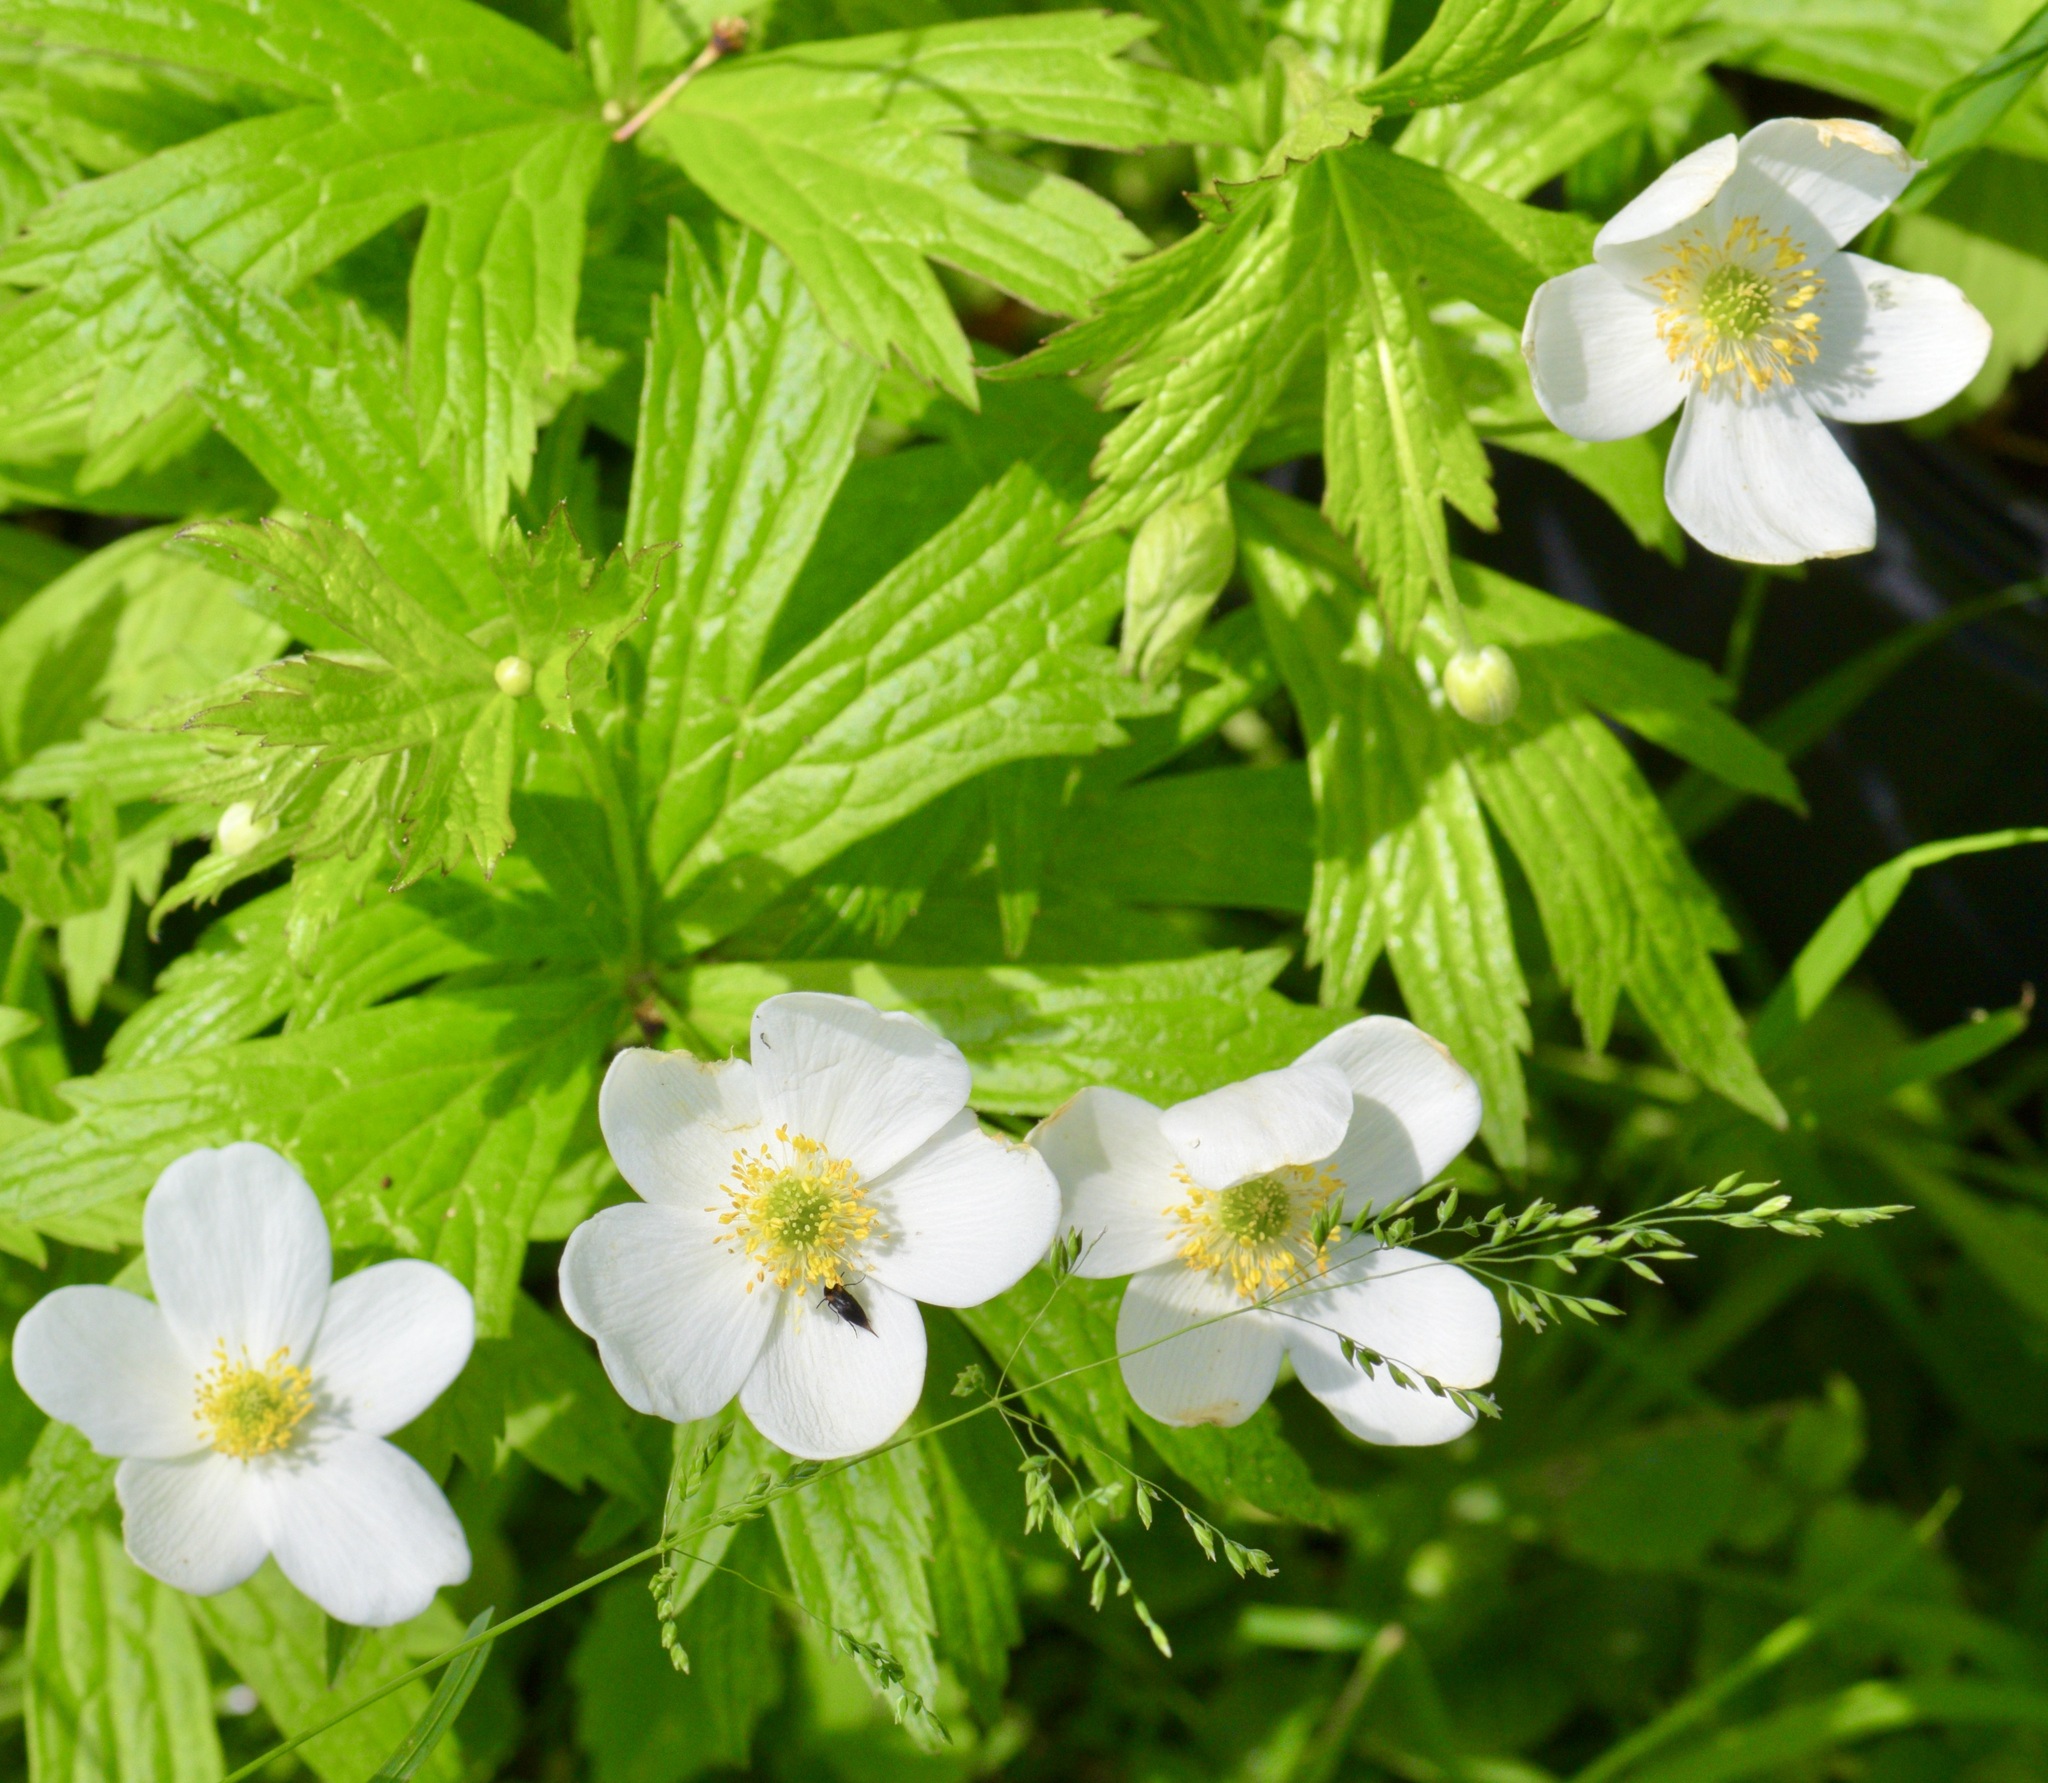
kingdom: Plantae
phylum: Tracheophyta
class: Magnoliopsida
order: Ranunculales
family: Ranunculaceae
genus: Anemonastrum
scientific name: Anemonastrum canadense
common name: Canada anemone
